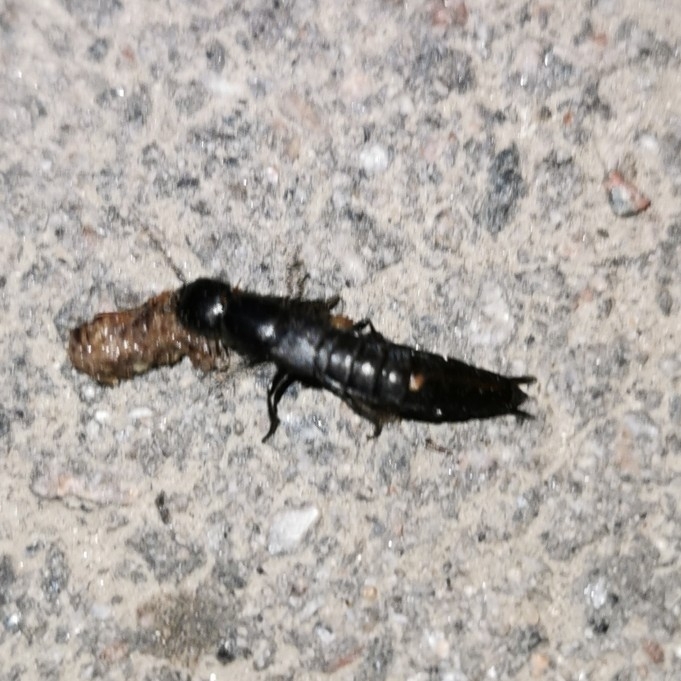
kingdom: Animalia
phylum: Arthropoda
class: Insecta
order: Coleoptera
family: Staphylinidae
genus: Ocypus
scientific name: Ocypus nitens
